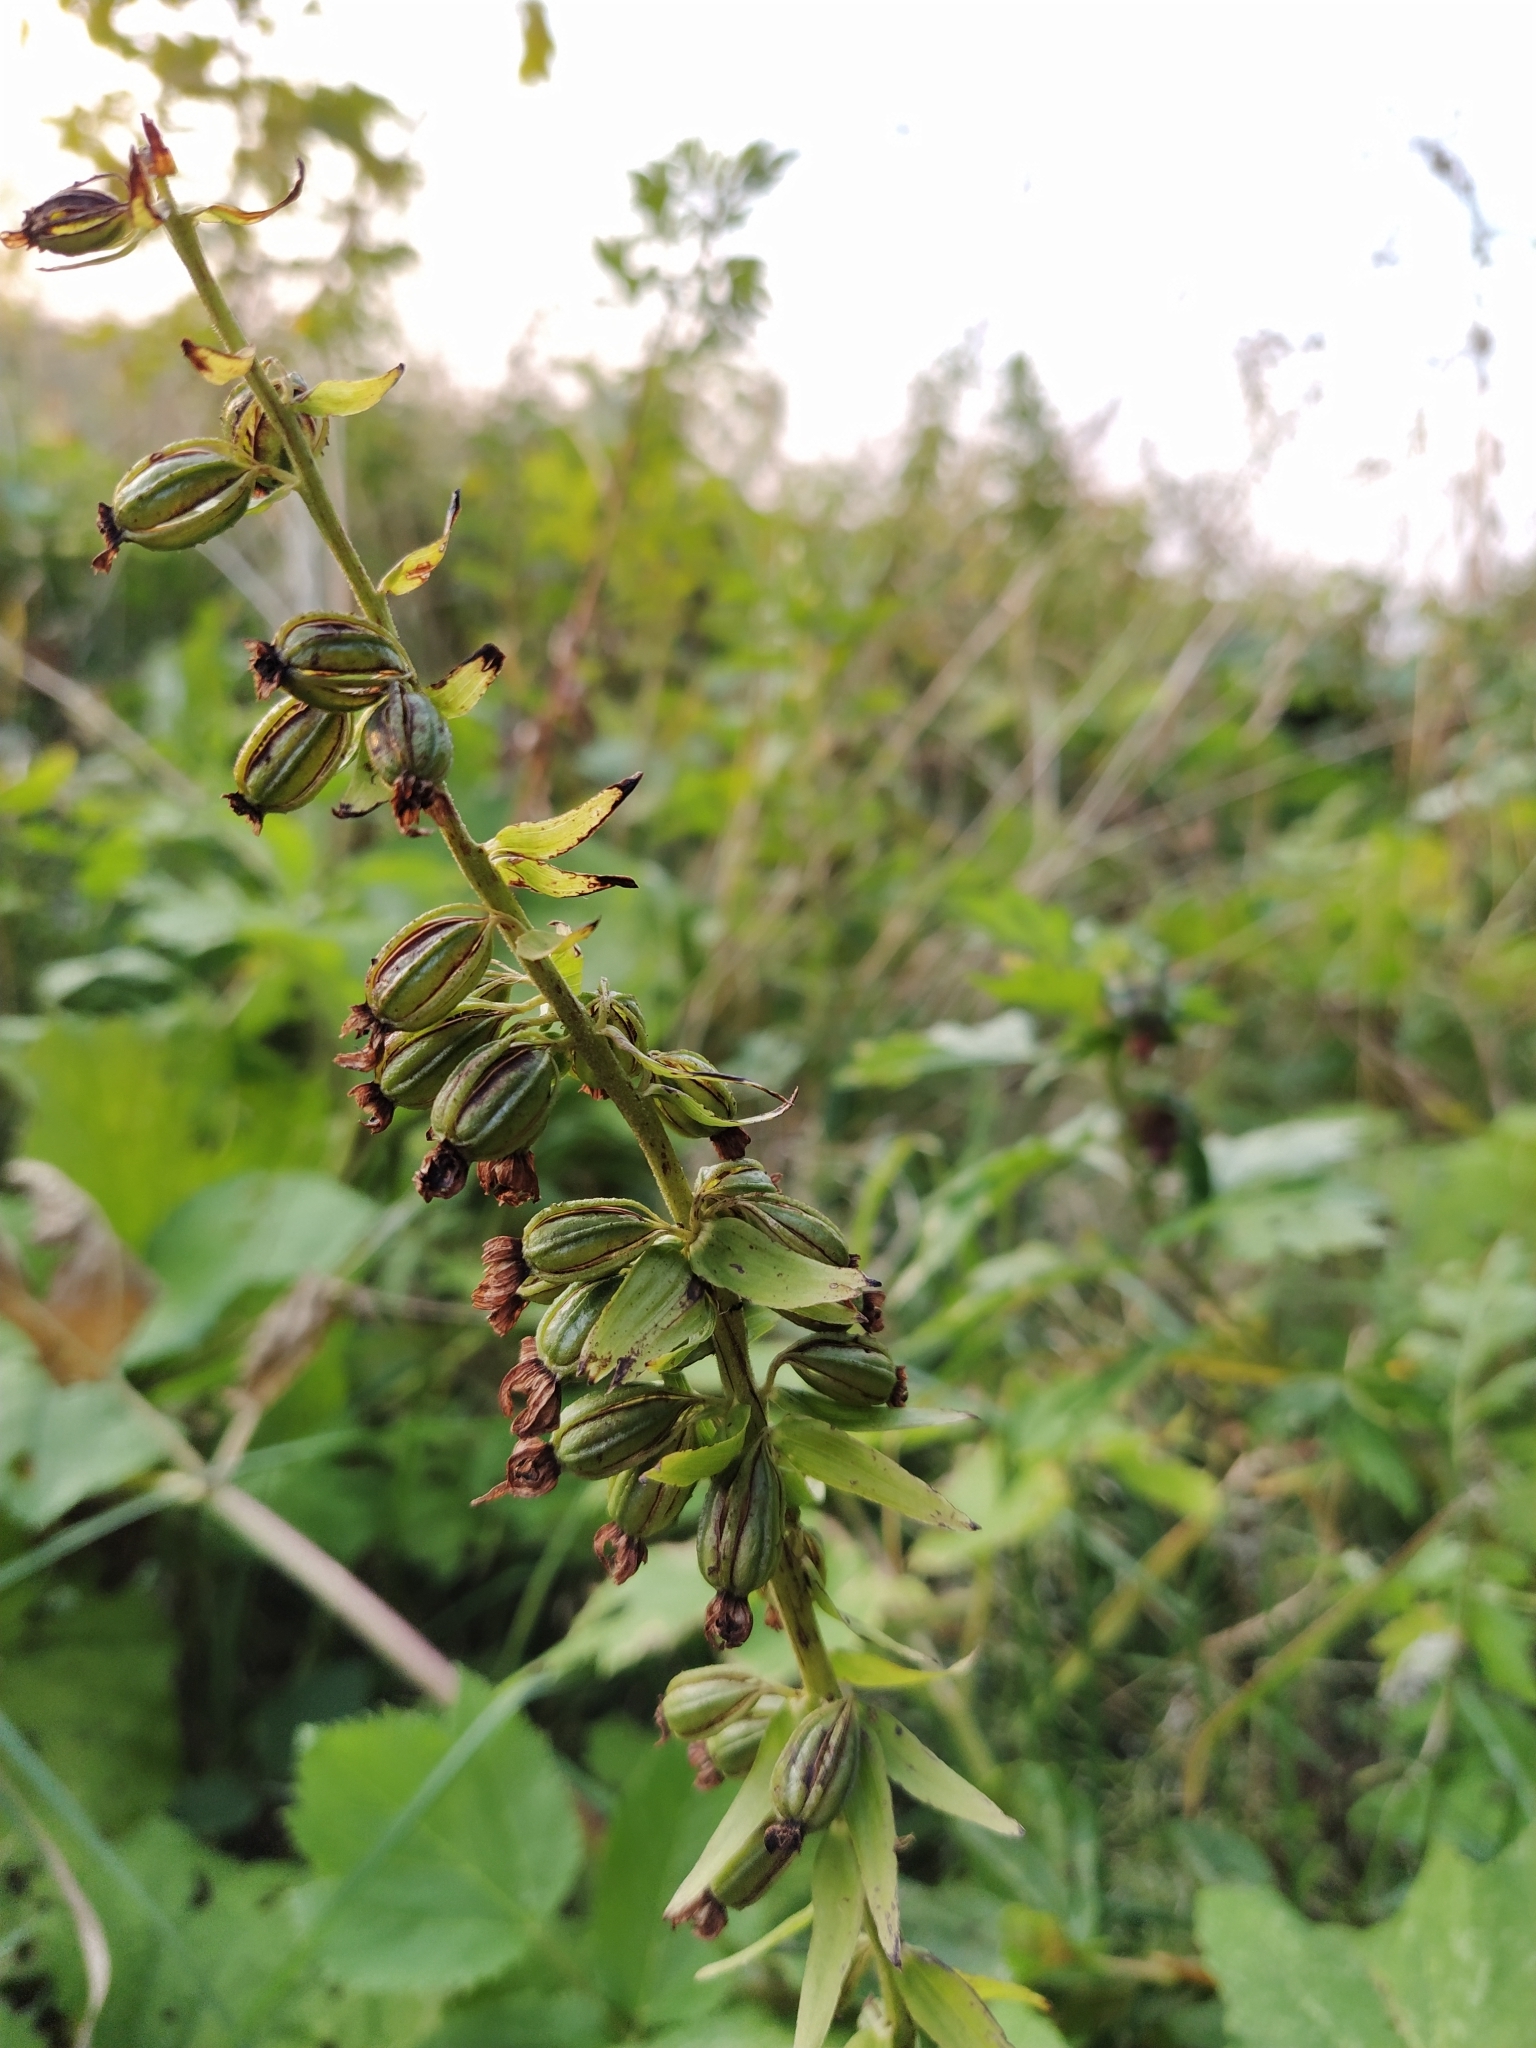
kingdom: Plantae
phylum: Tracheophyta
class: Liliopsida
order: Asparagales
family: Orchidaceae
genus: Epipactis
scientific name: Epipactis helleborine
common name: Broad-leaved helleborine
